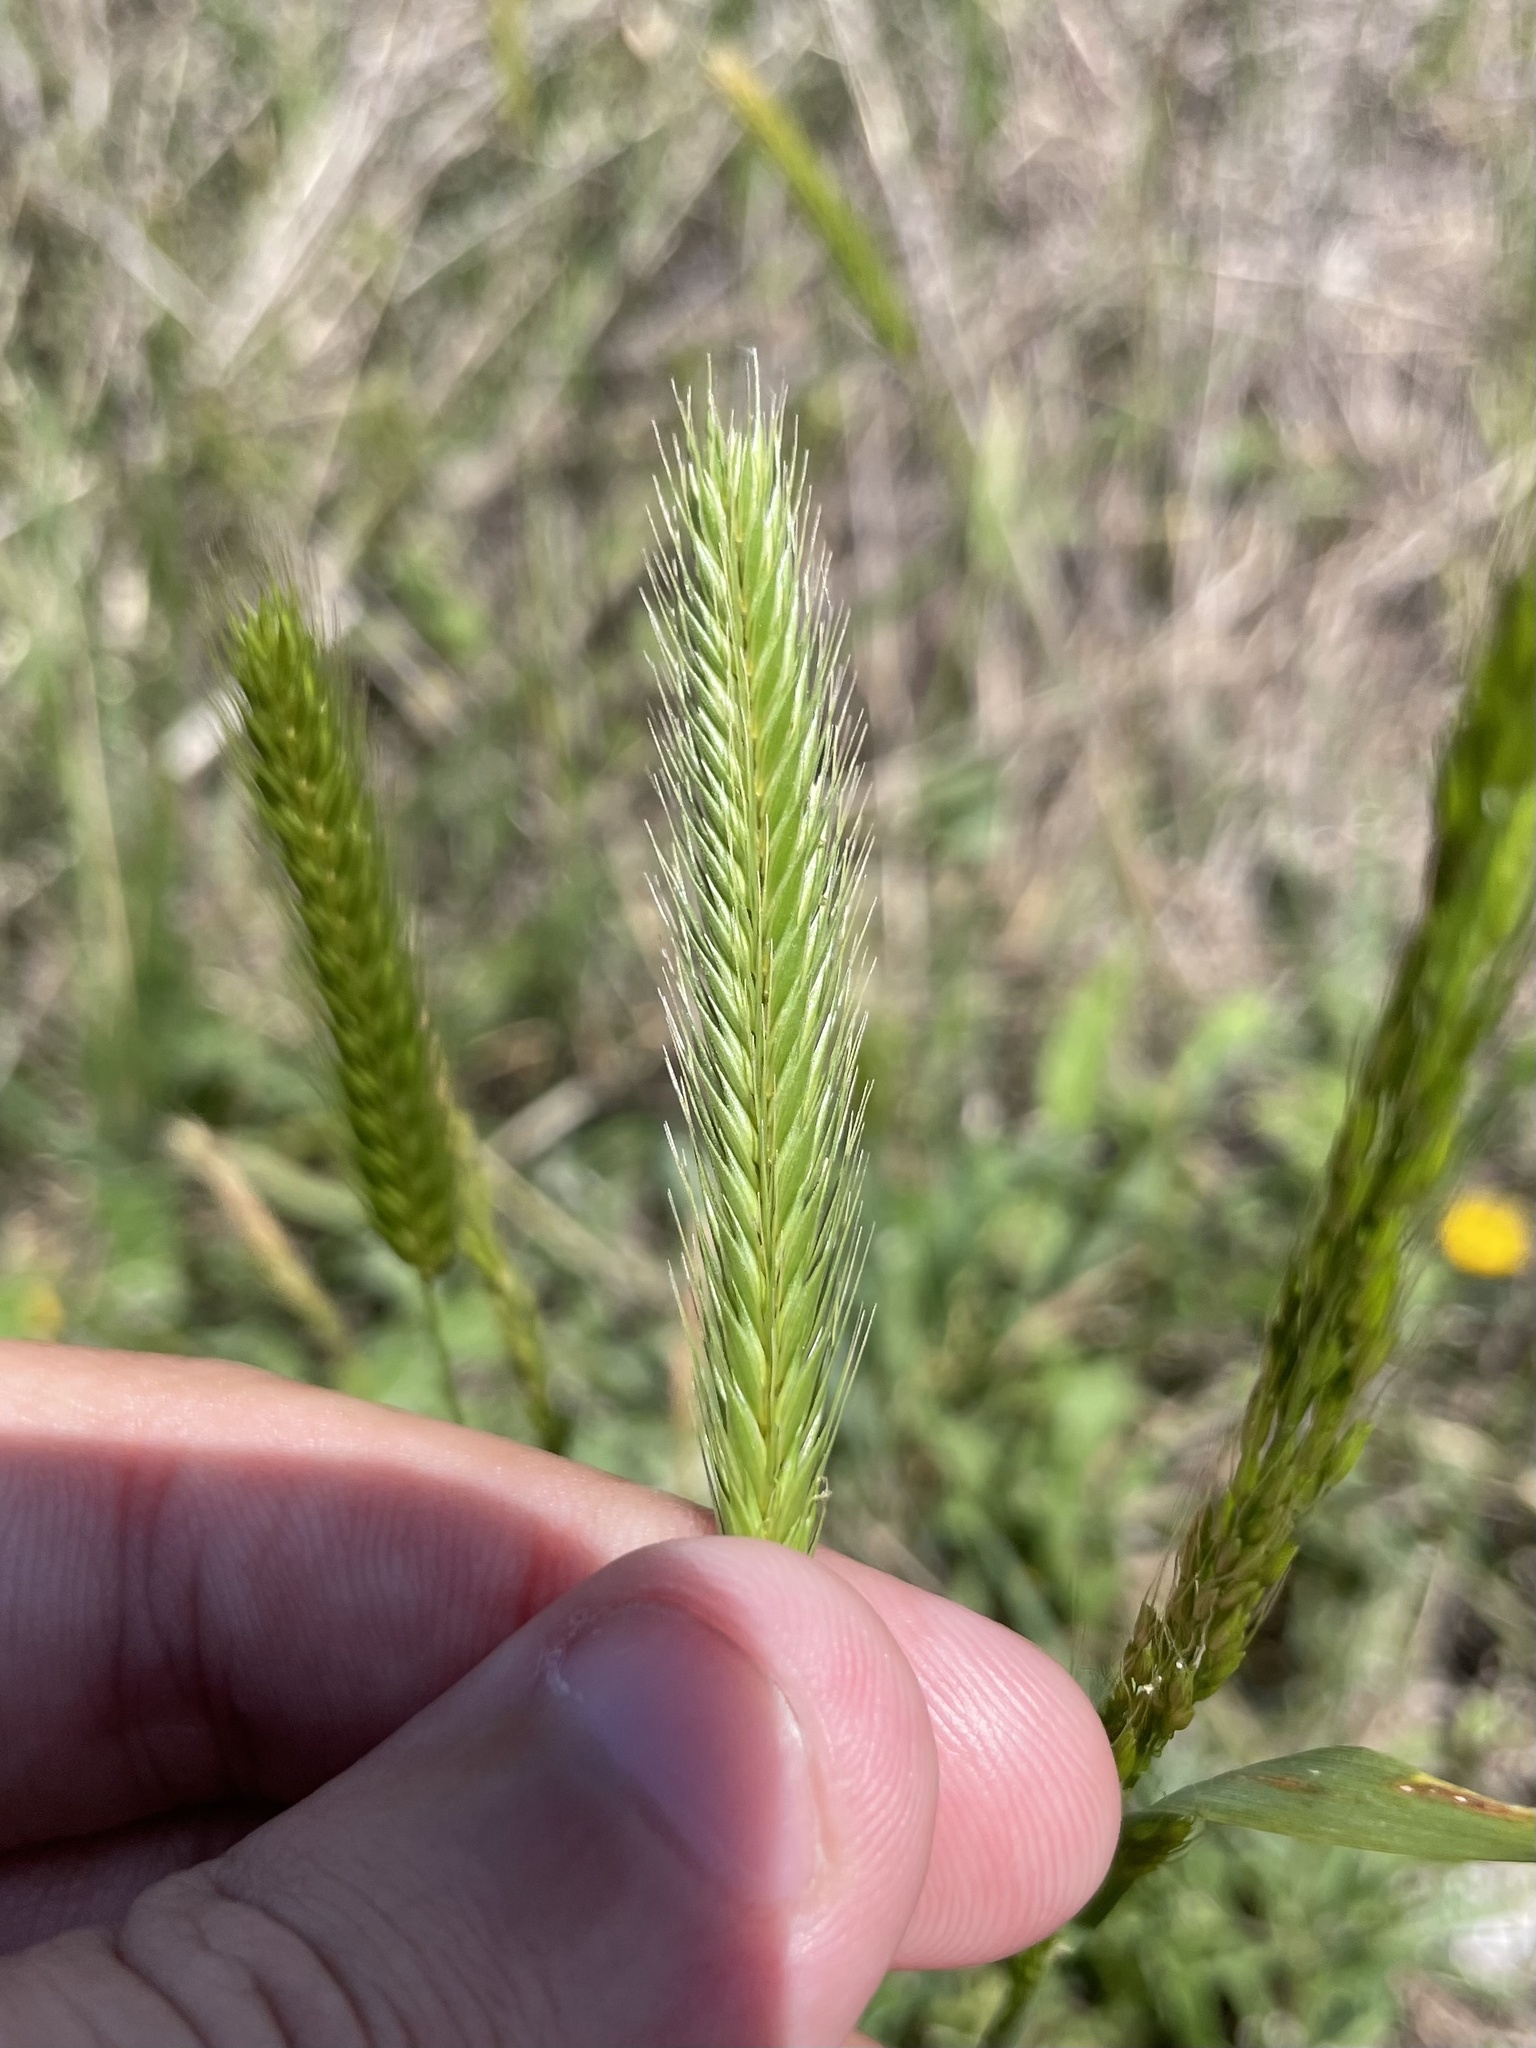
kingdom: Plantae
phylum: Tracheophyta
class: Liliopsida
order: Poales
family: Poaceae
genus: Hordeum
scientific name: Hordeum pusillum
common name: Little barley
